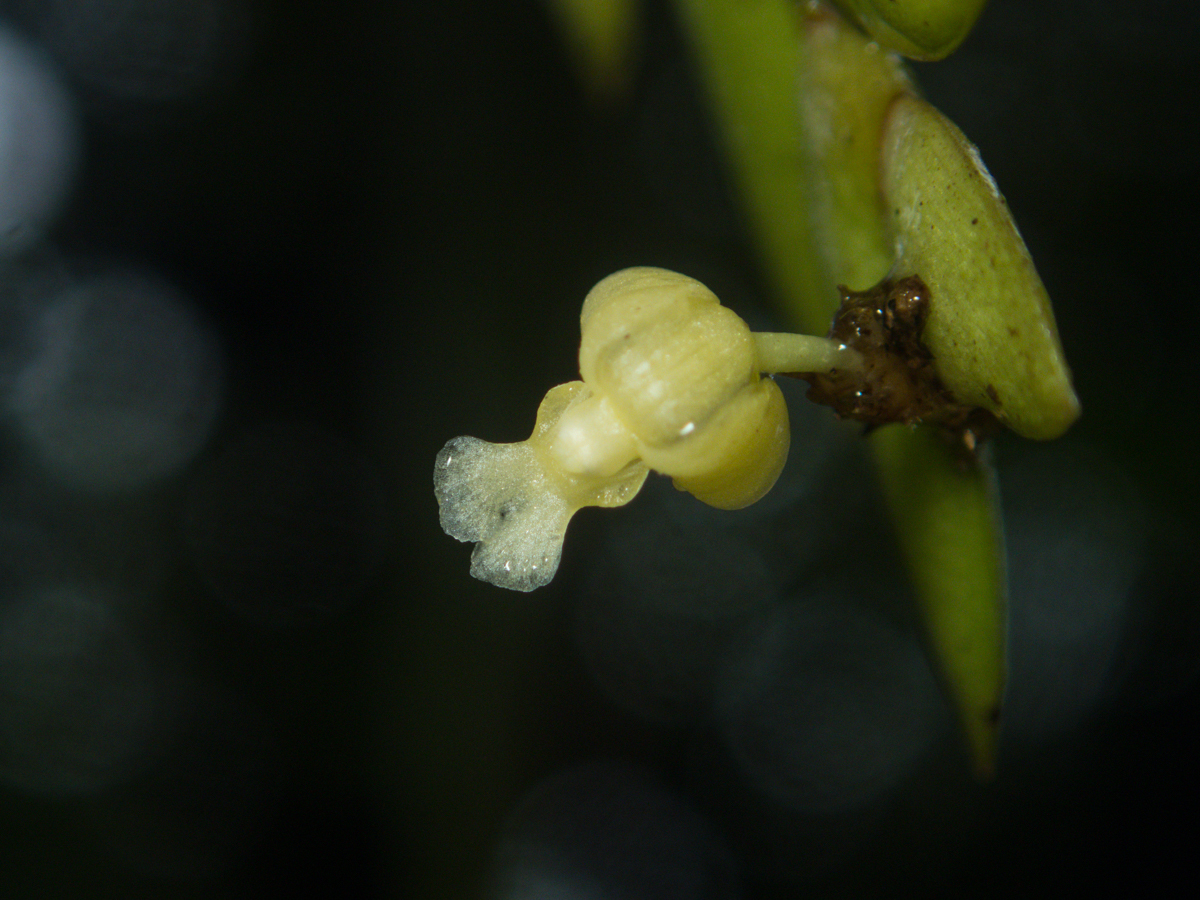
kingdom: Plantae
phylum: Tracheophyta
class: Liliopsida
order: Asparagales
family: Orchidaceae
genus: Dendrobium
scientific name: Dendrobium aloifolium
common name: Aloe-like dendrobium
